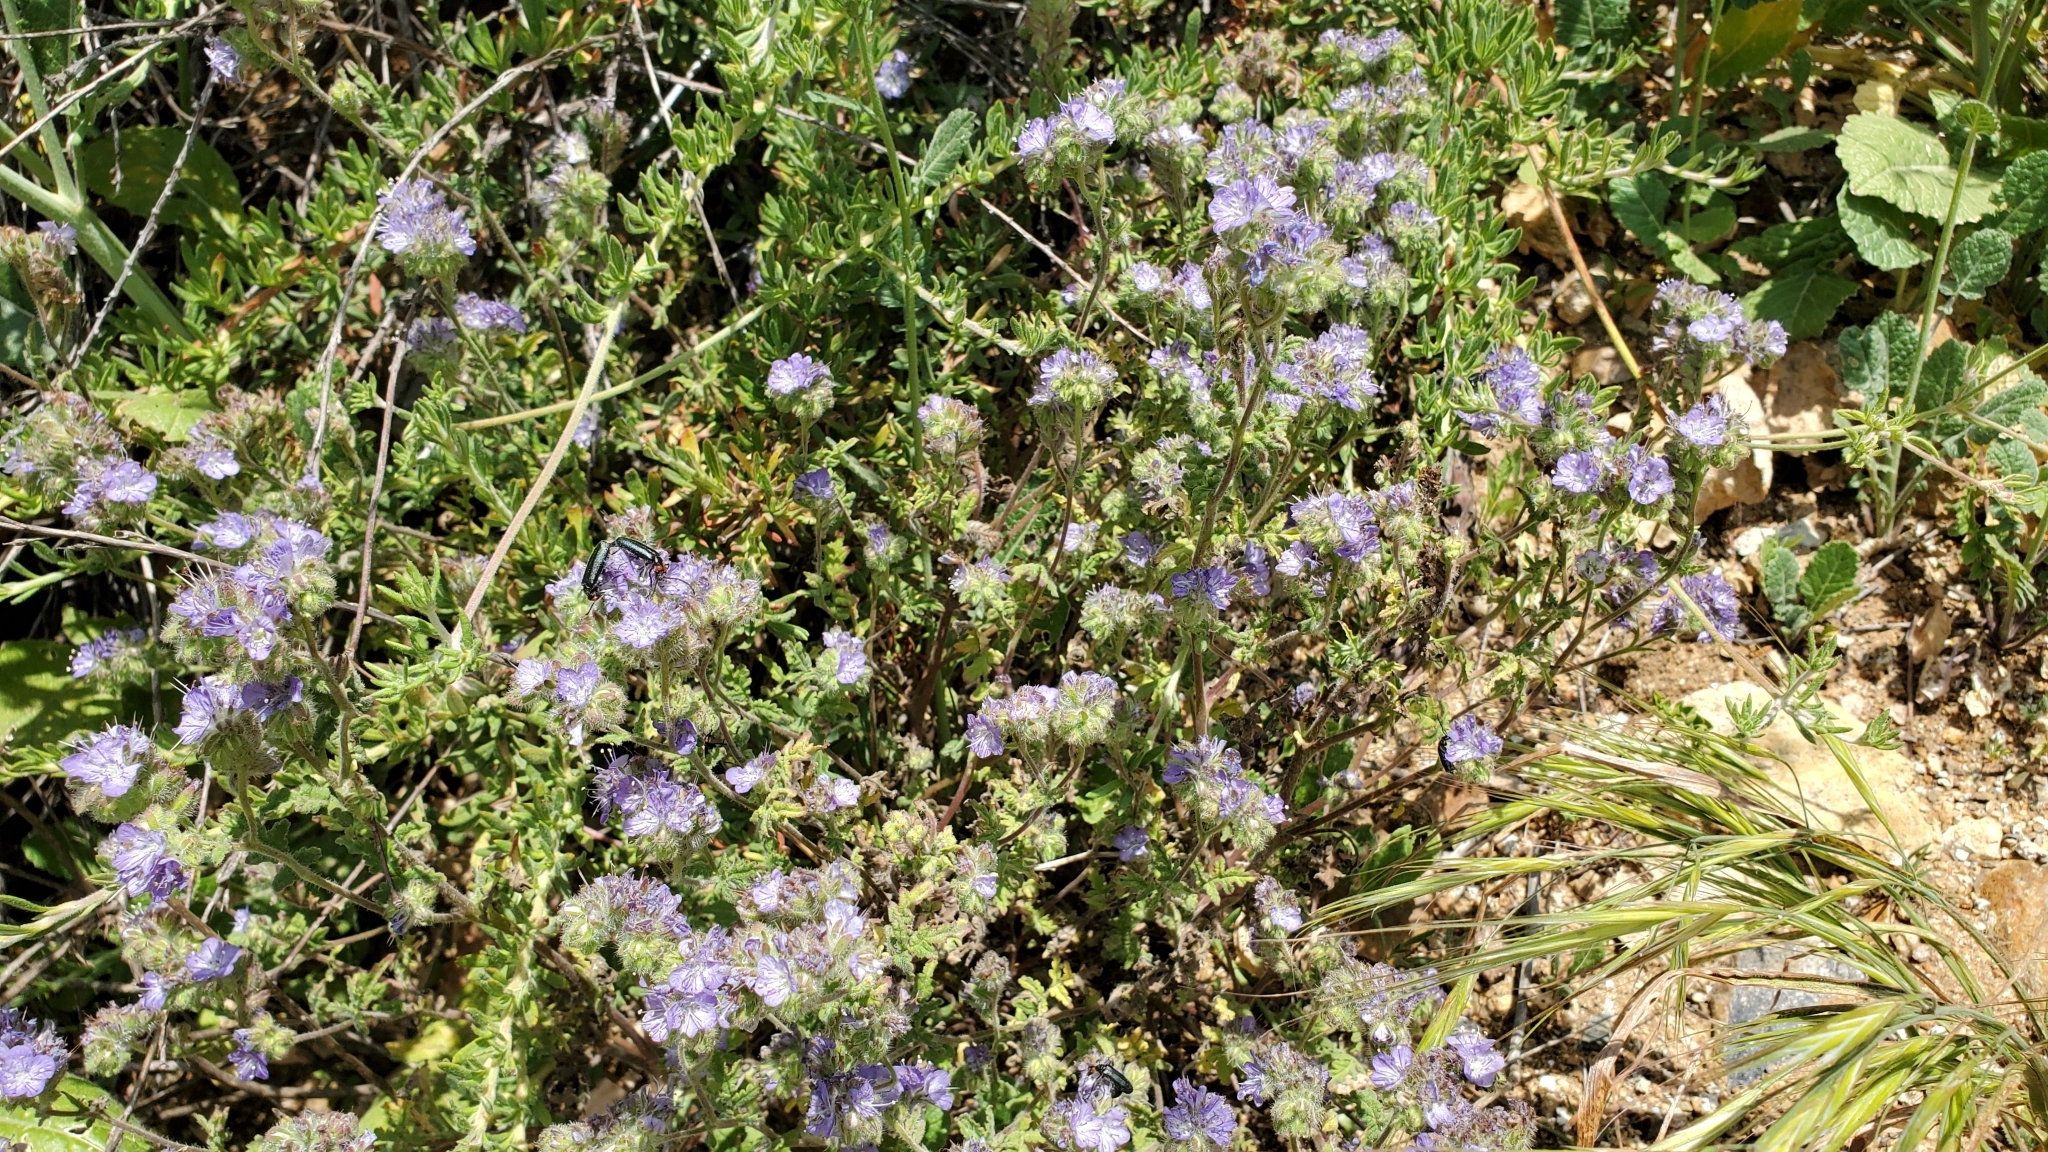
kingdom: Plantae
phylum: Tracheophyta
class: Magnoliopsida
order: Boraginales
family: Hydrophyllaceae
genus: Phacelia
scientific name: Phacelia distans
